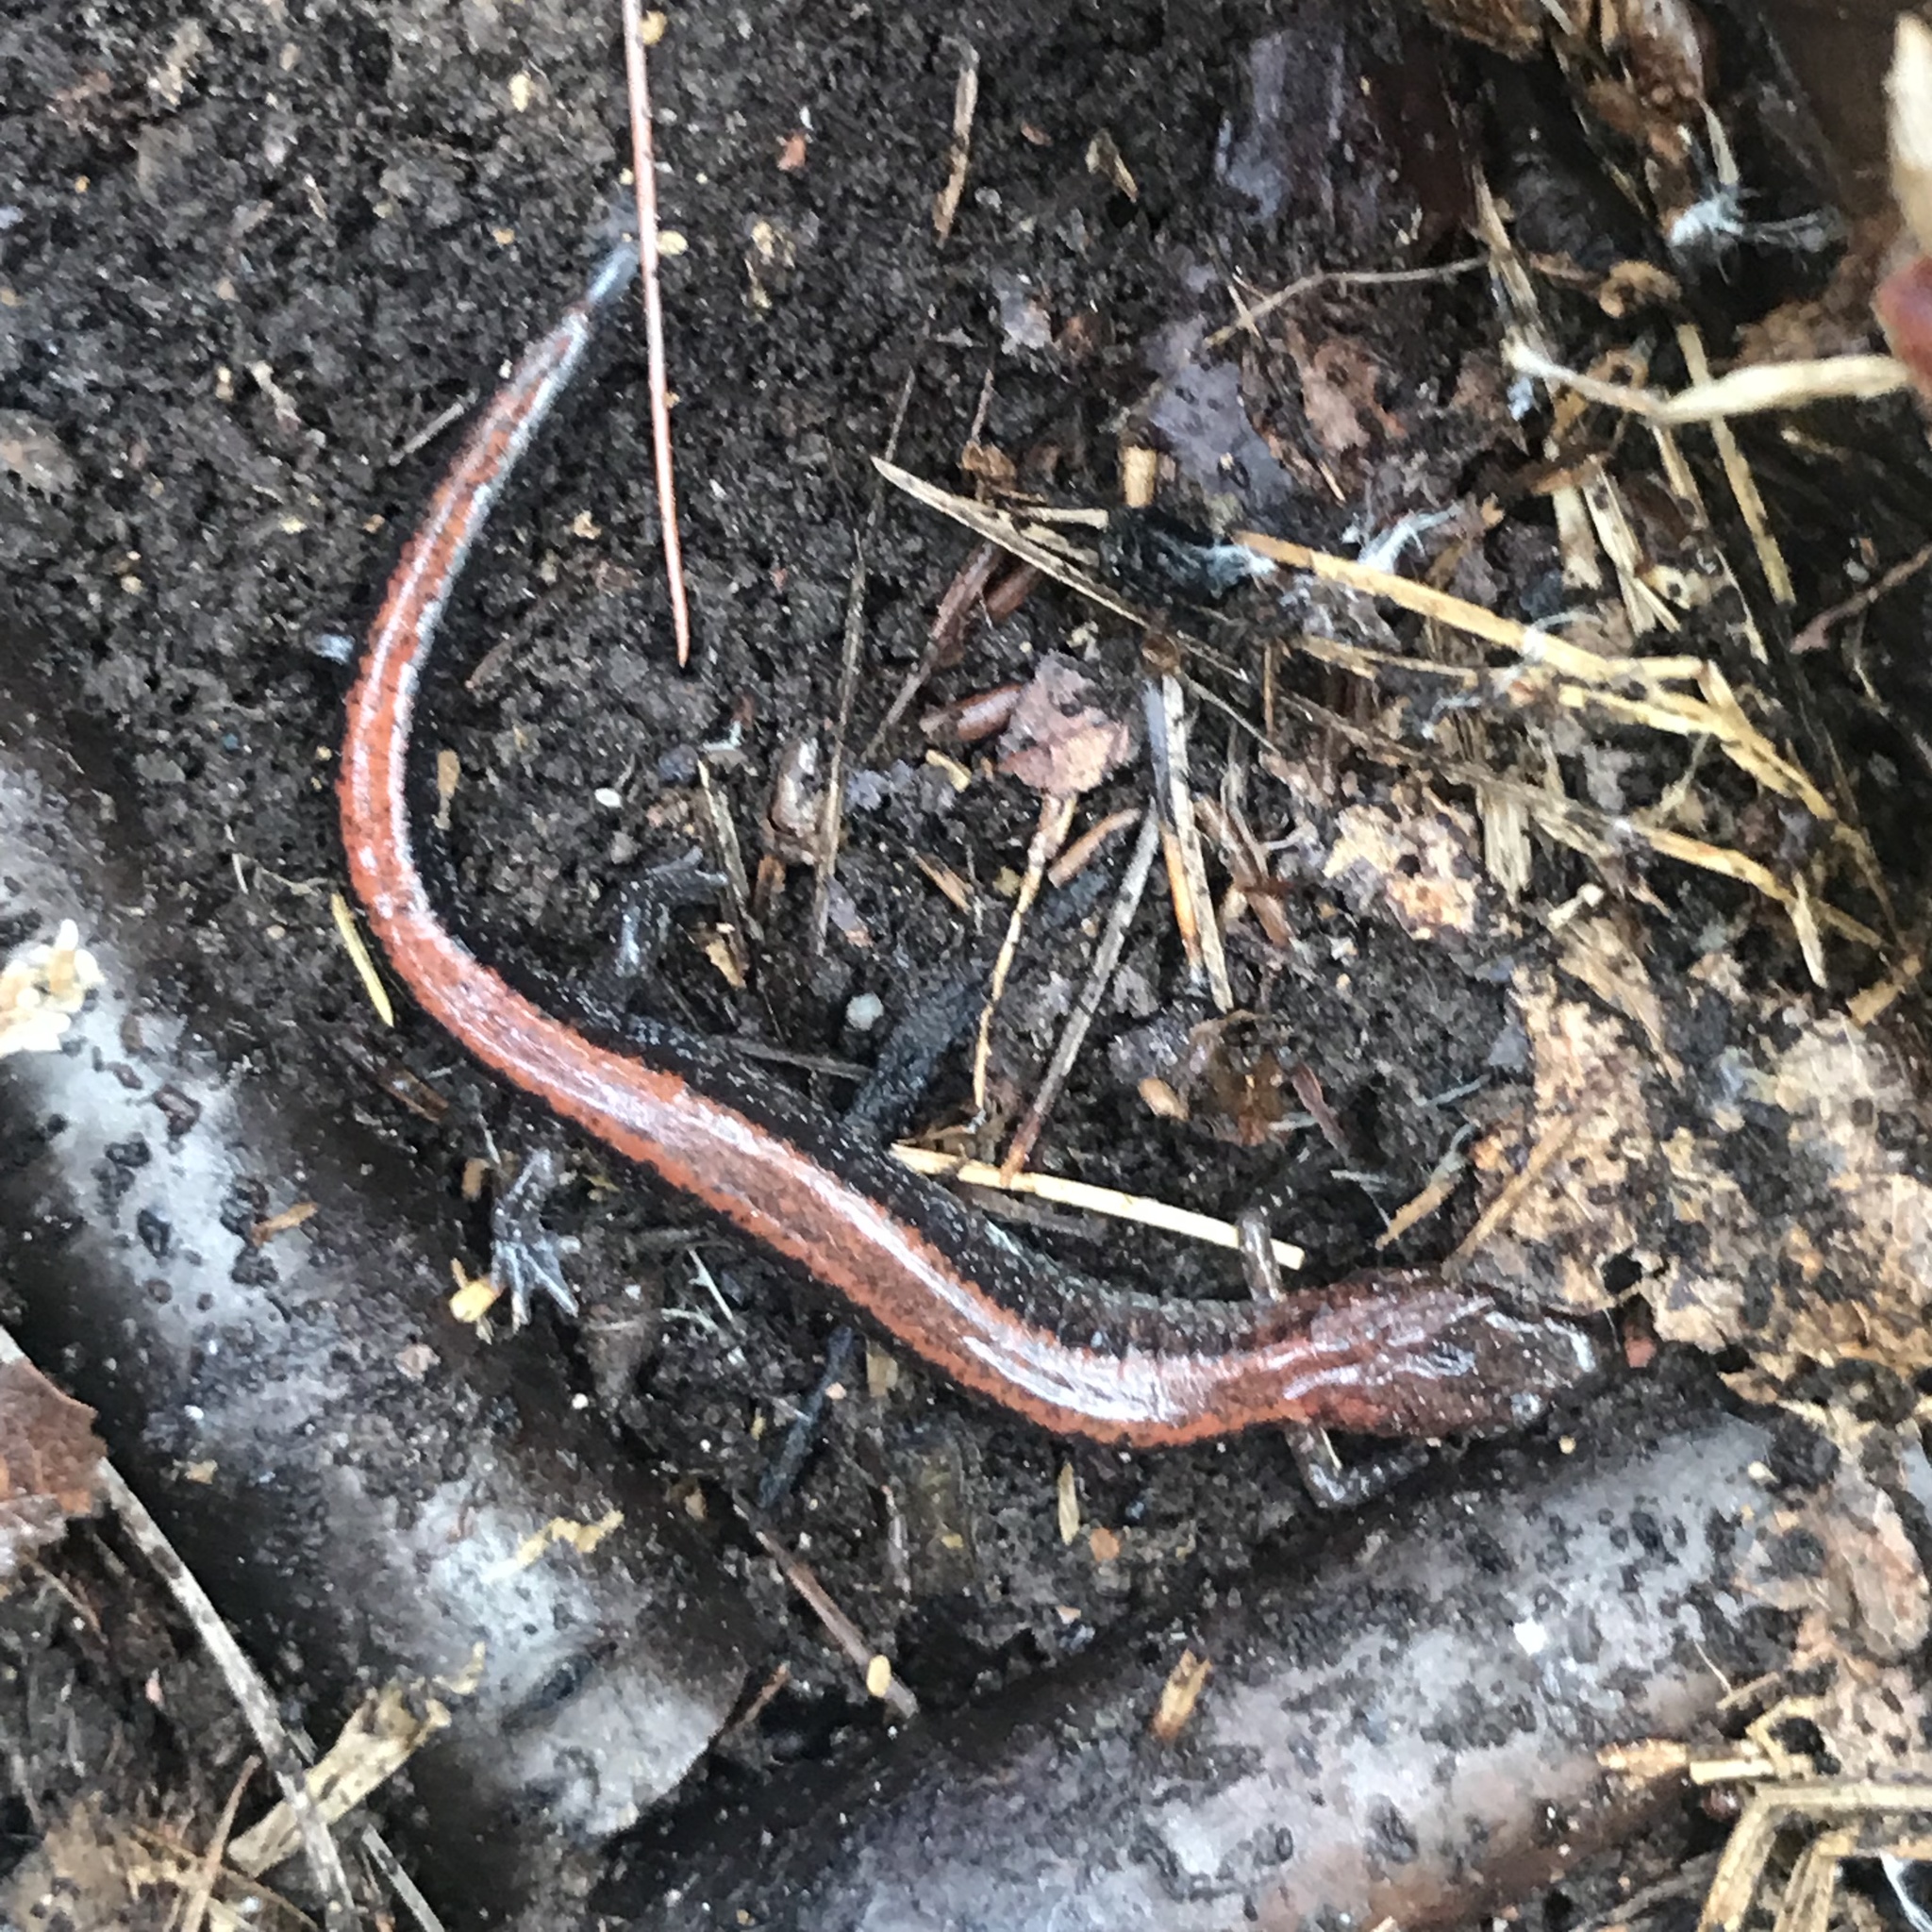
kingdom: Animalia
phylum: Chordata
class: Amphibia
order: Caudata
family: Plethodontidae
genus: Plethodon
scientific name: Plethodon cinereus
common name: Redback salamander
